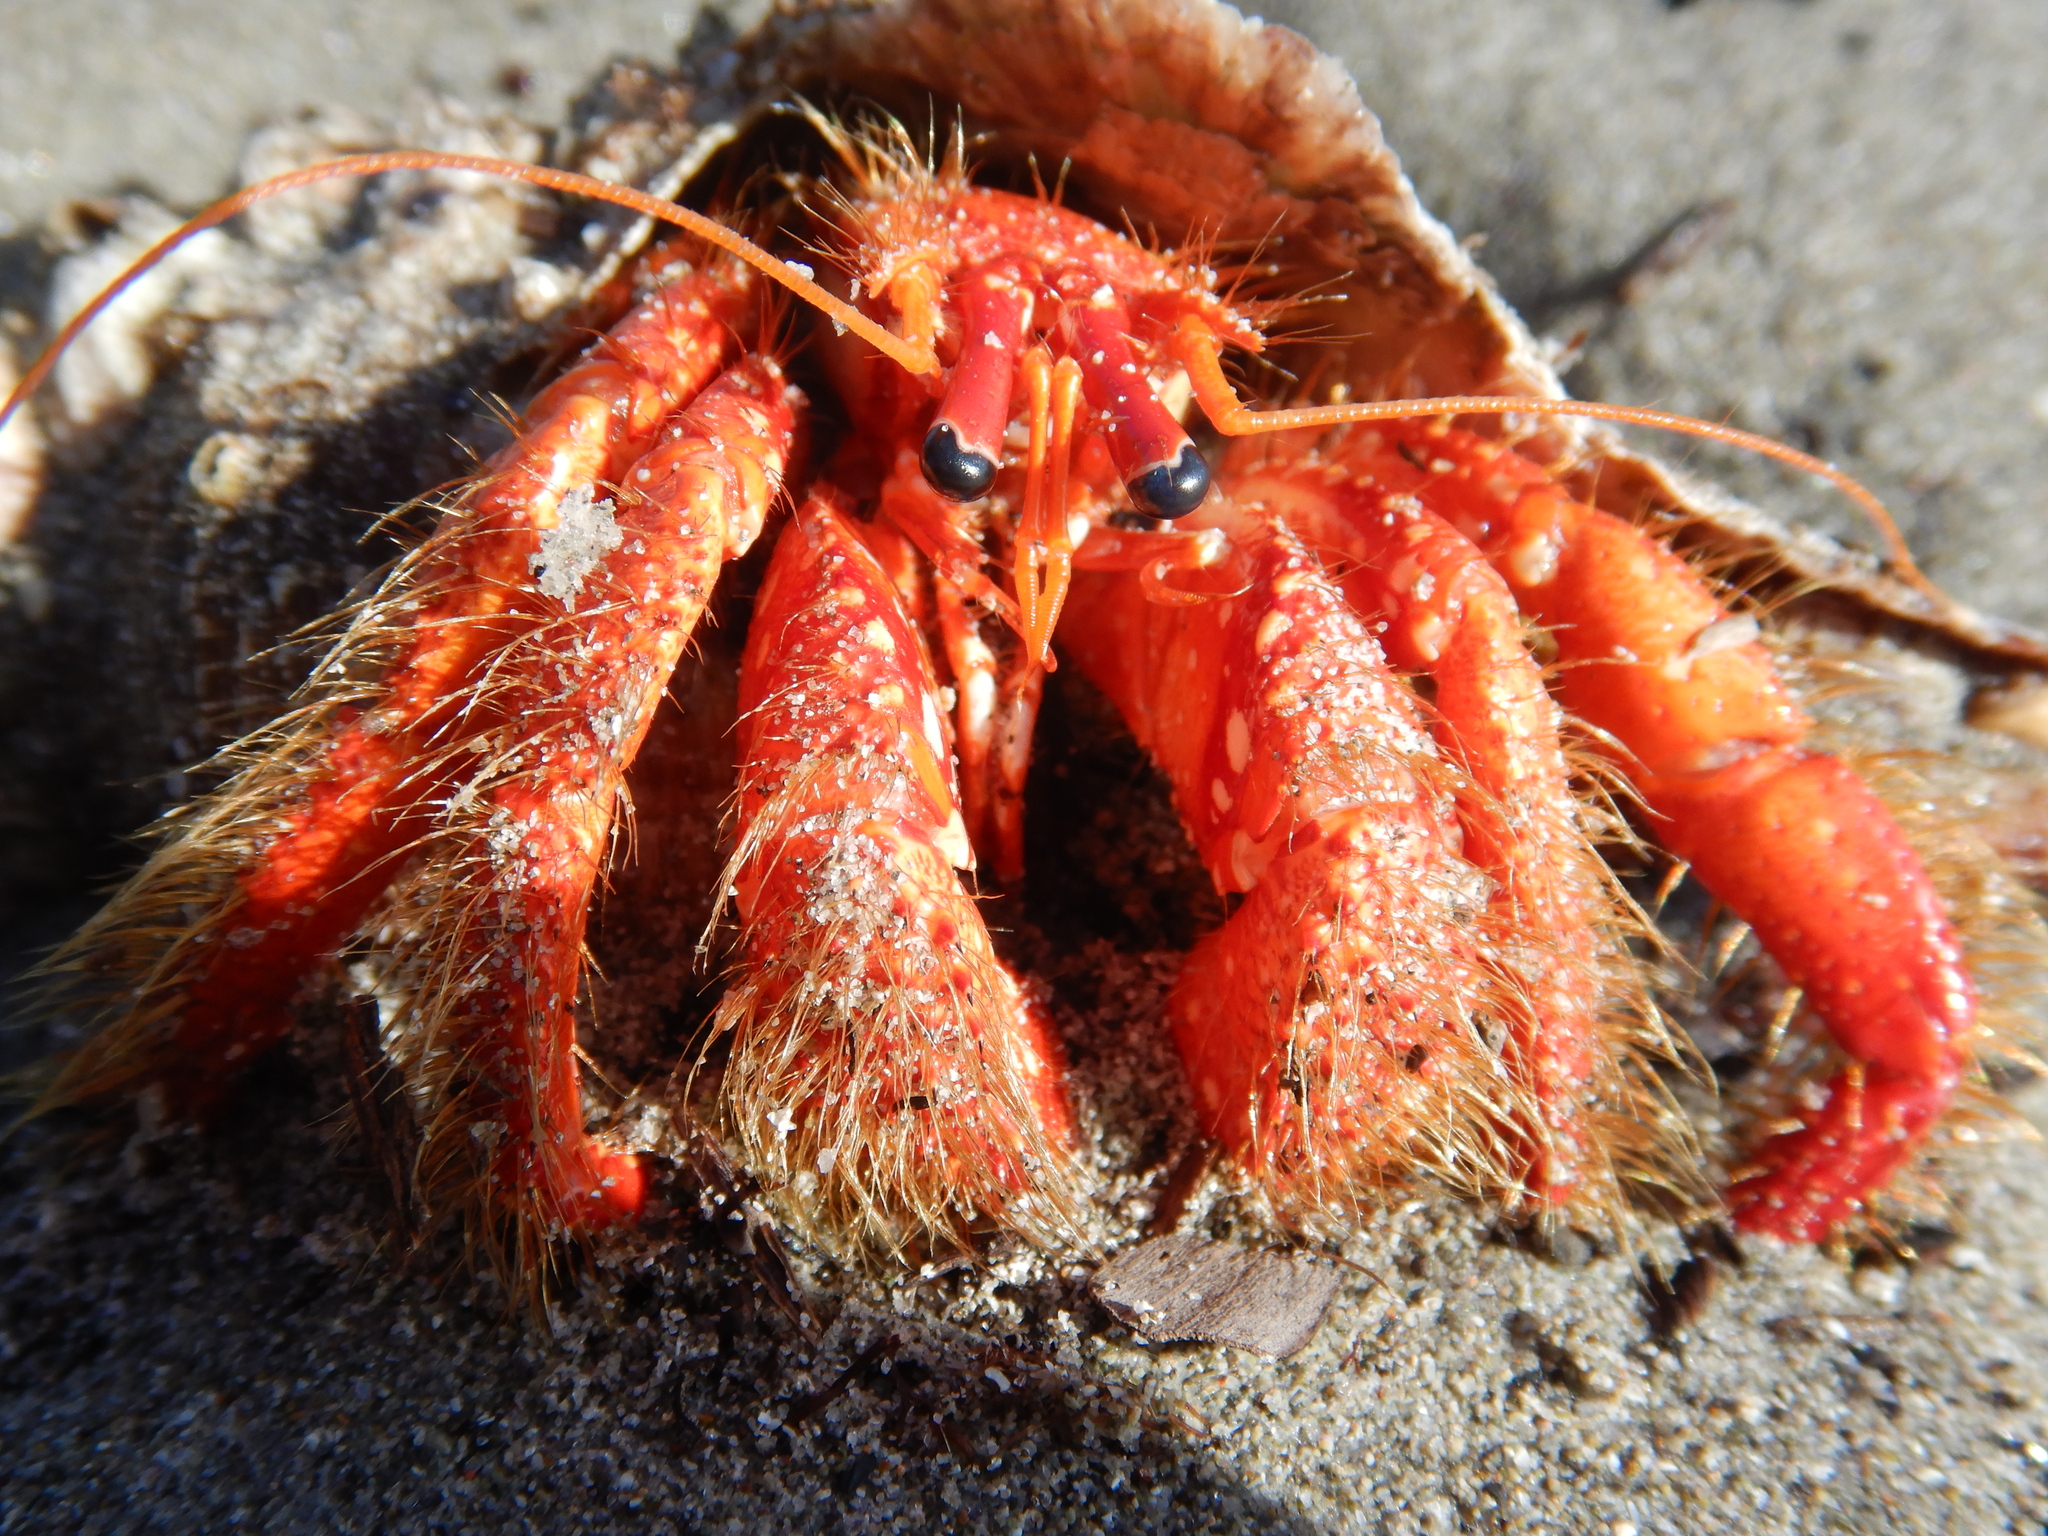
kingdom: Animalia
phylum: Arthropoda
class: Malacostraca
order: Decapoda
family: Diogenidae
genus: Strigopagurus
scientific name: Strigopagurus strigimanus
